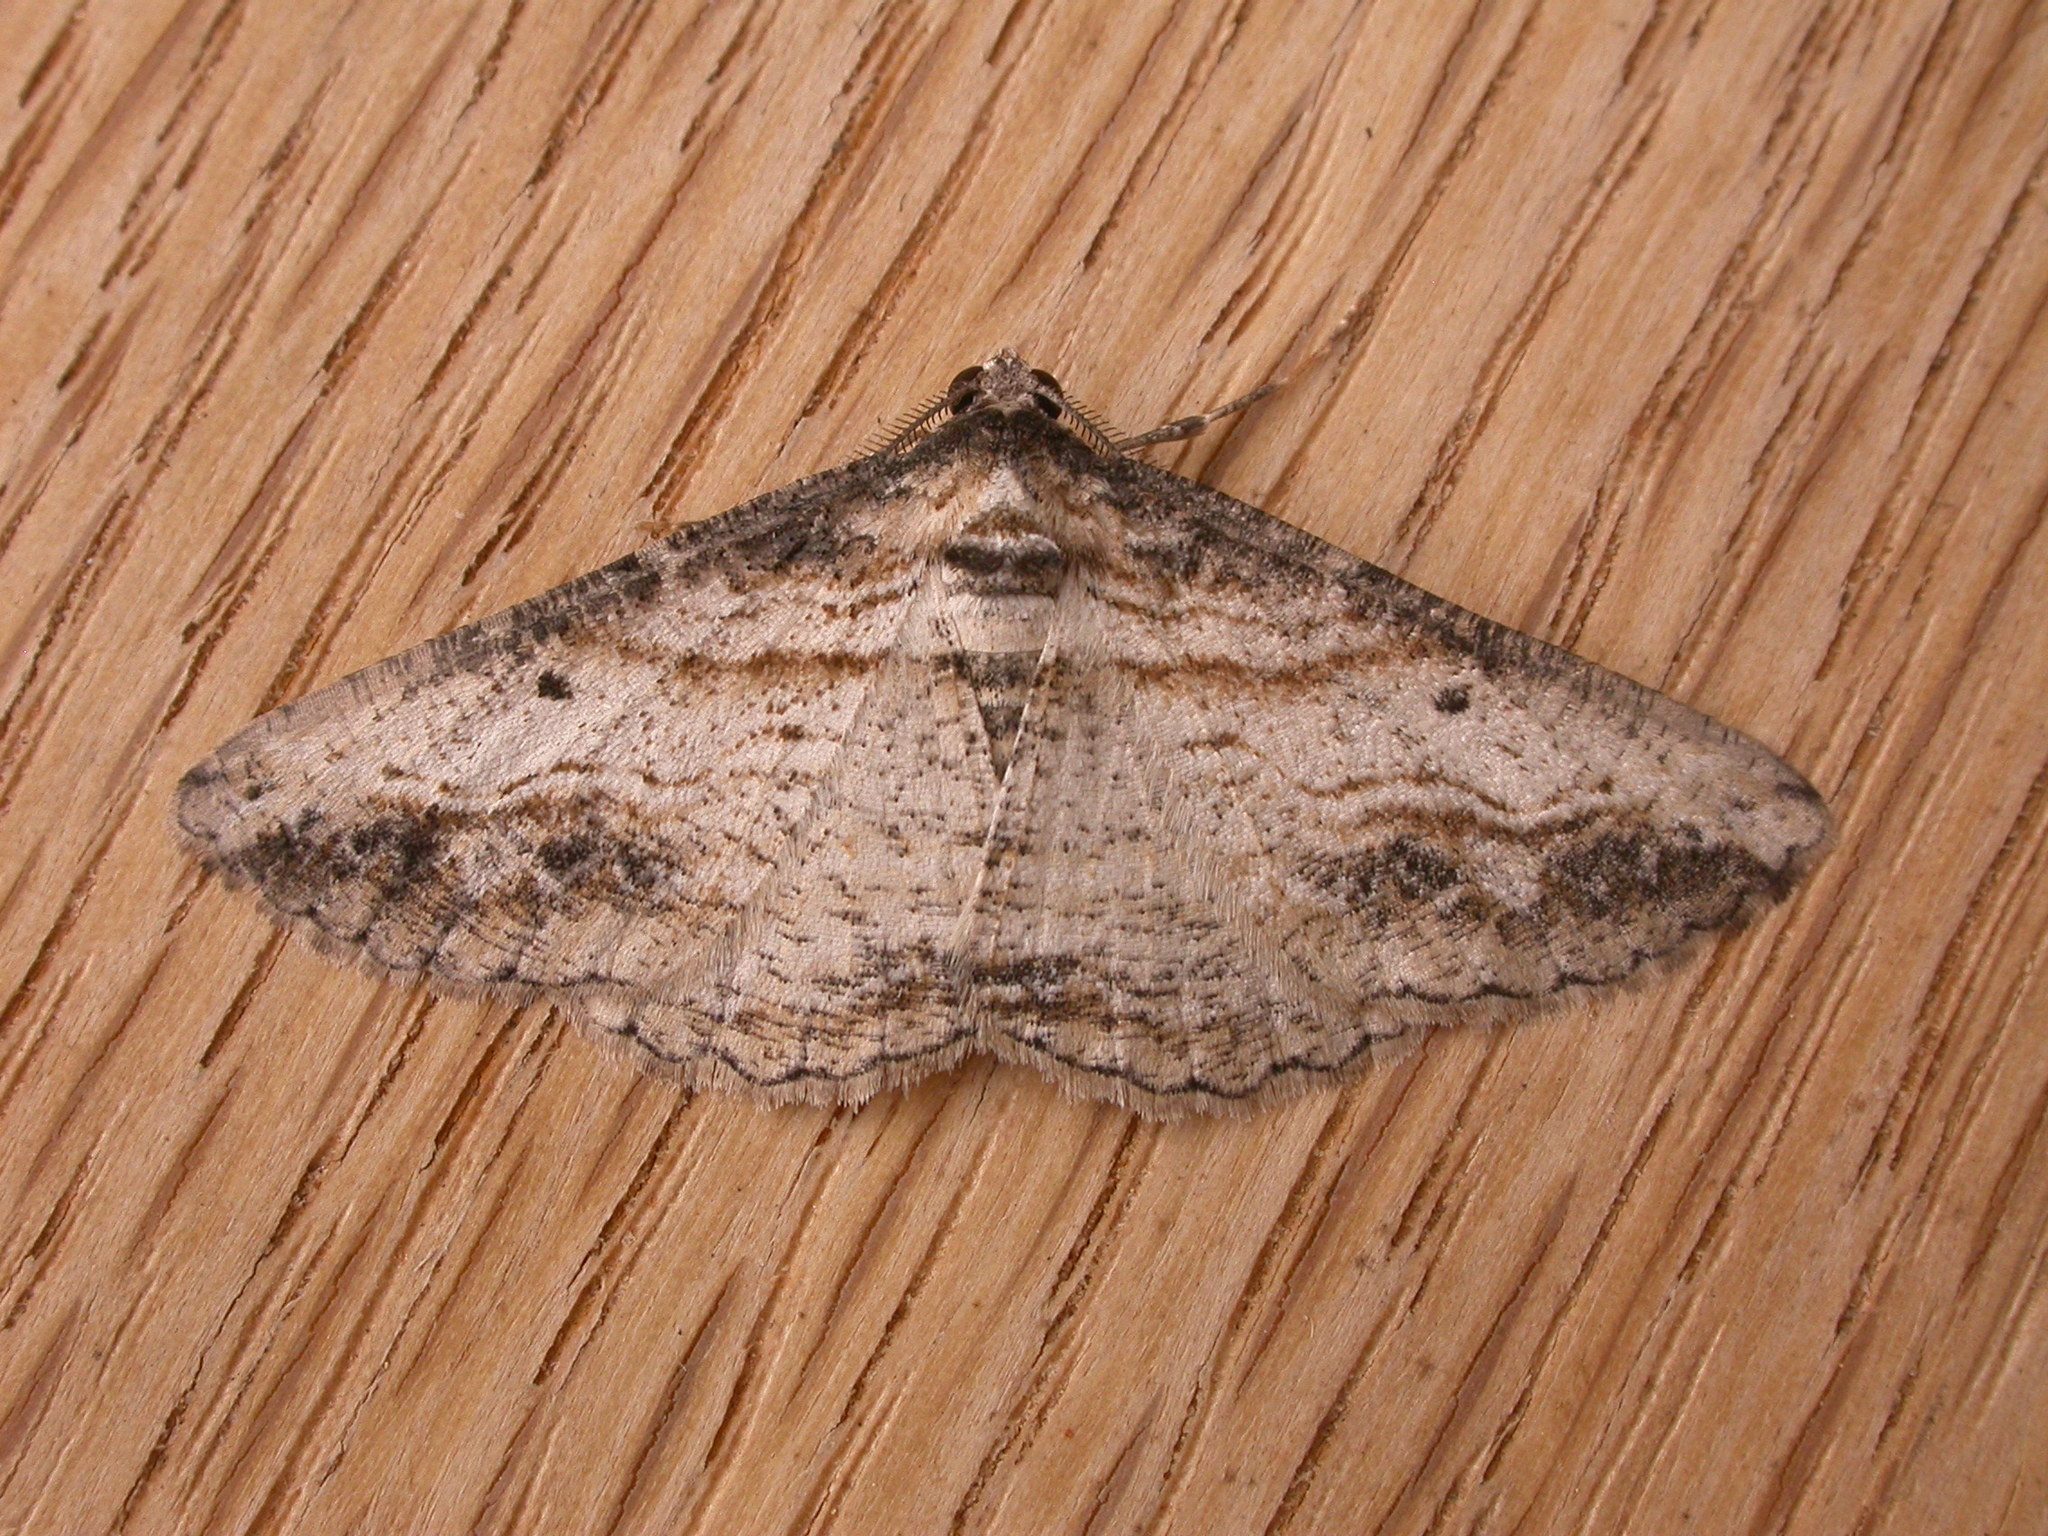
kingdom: Animalia
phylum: Arthropoda
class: Insecta
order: Lepidoptera
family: Geometridae
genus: Syneora
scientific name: Syneora euboliaria
